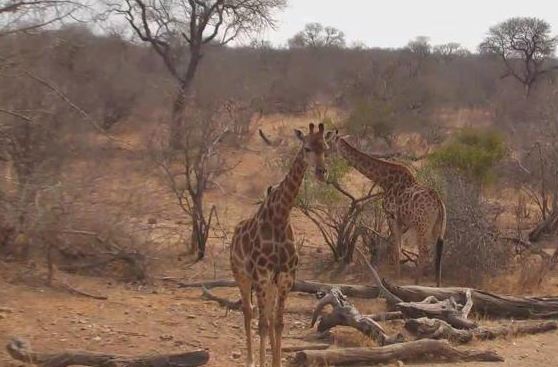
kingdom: Animalia
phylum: Chordata
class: Mammalia
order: Artiodactyla
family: Giraffidae
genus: Giraffa
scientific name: Giraffa giraffa
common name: Southern giraffe
